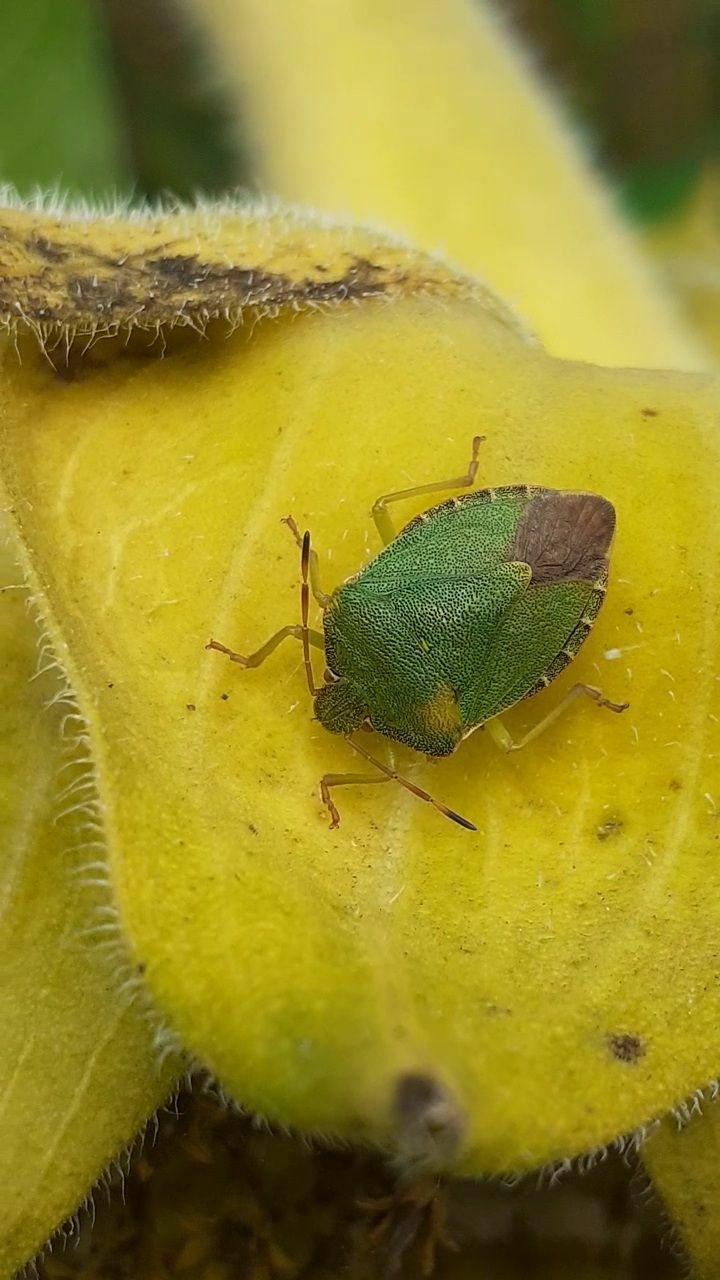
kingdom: Animalia
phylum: Arthropoda
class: Insecta
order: Hemiptera
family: Pentatomidae
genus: Palomena
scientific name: Palomena prasina
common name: Green shieldbug
